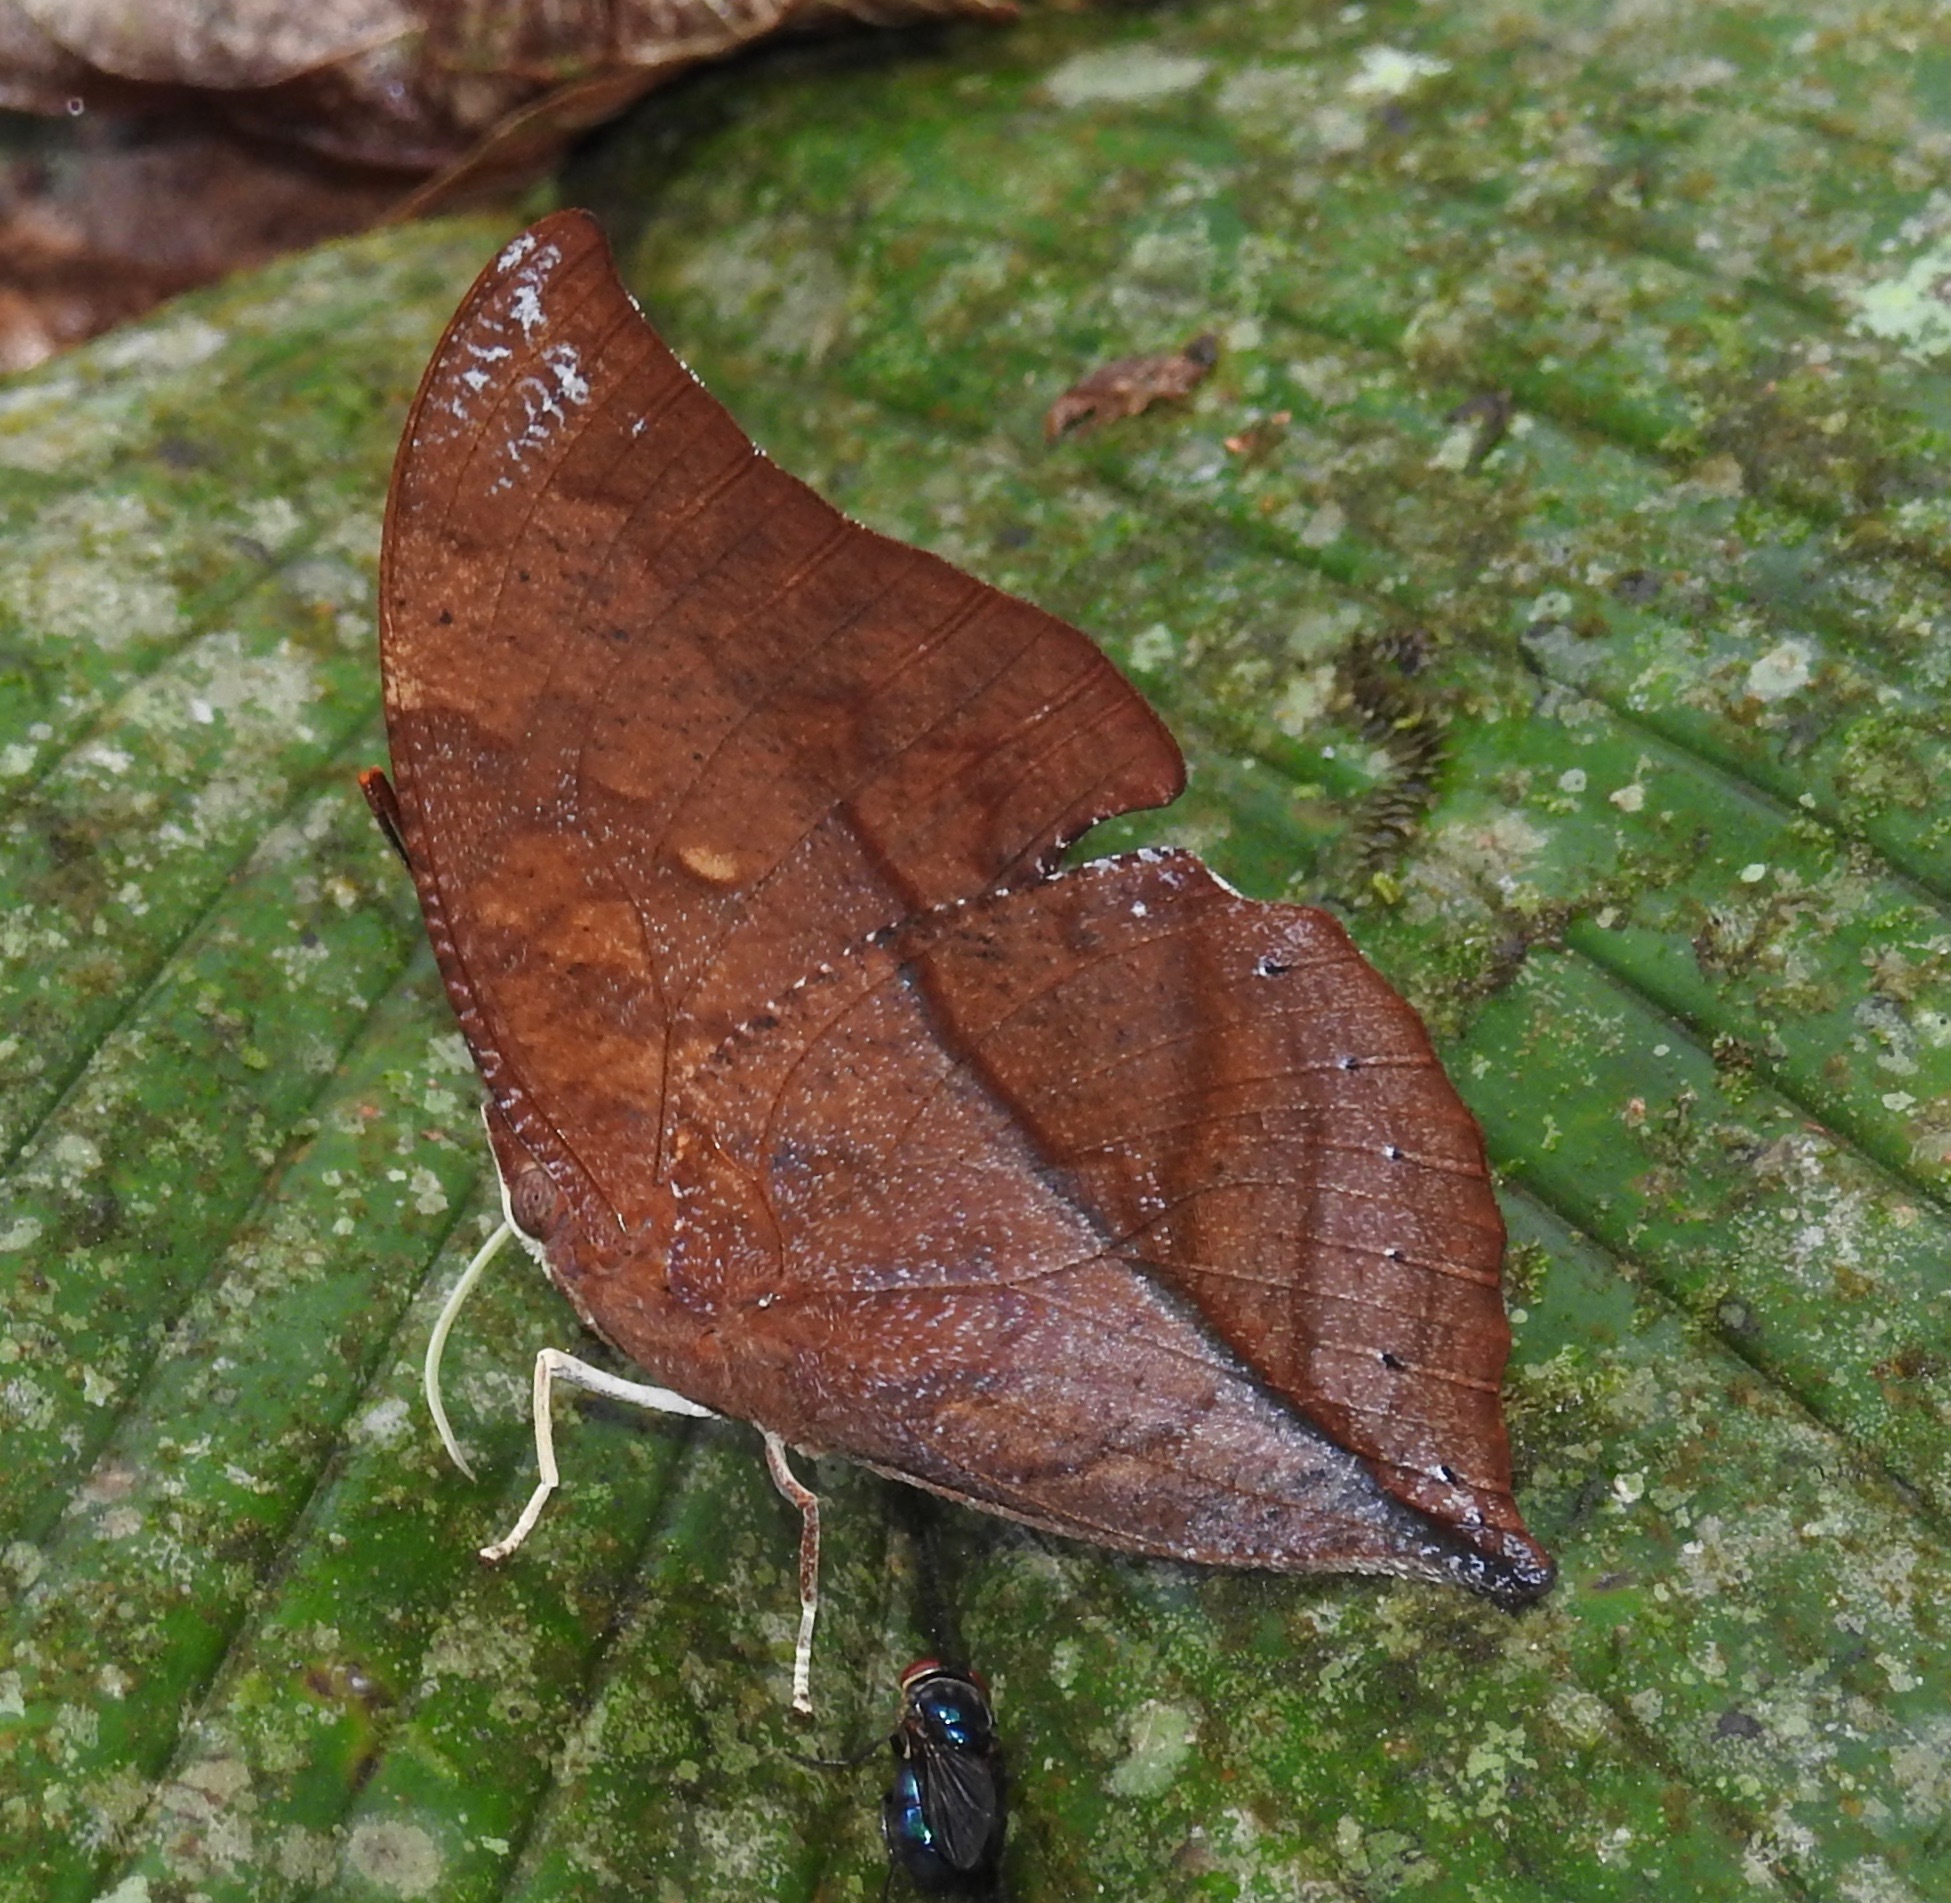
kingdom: Animalia
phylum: Arthropoda
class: Insecta
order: Lepidoptera
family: Nymphalidae
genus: Zaretis
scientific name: Zaretis mirandahenrichae
